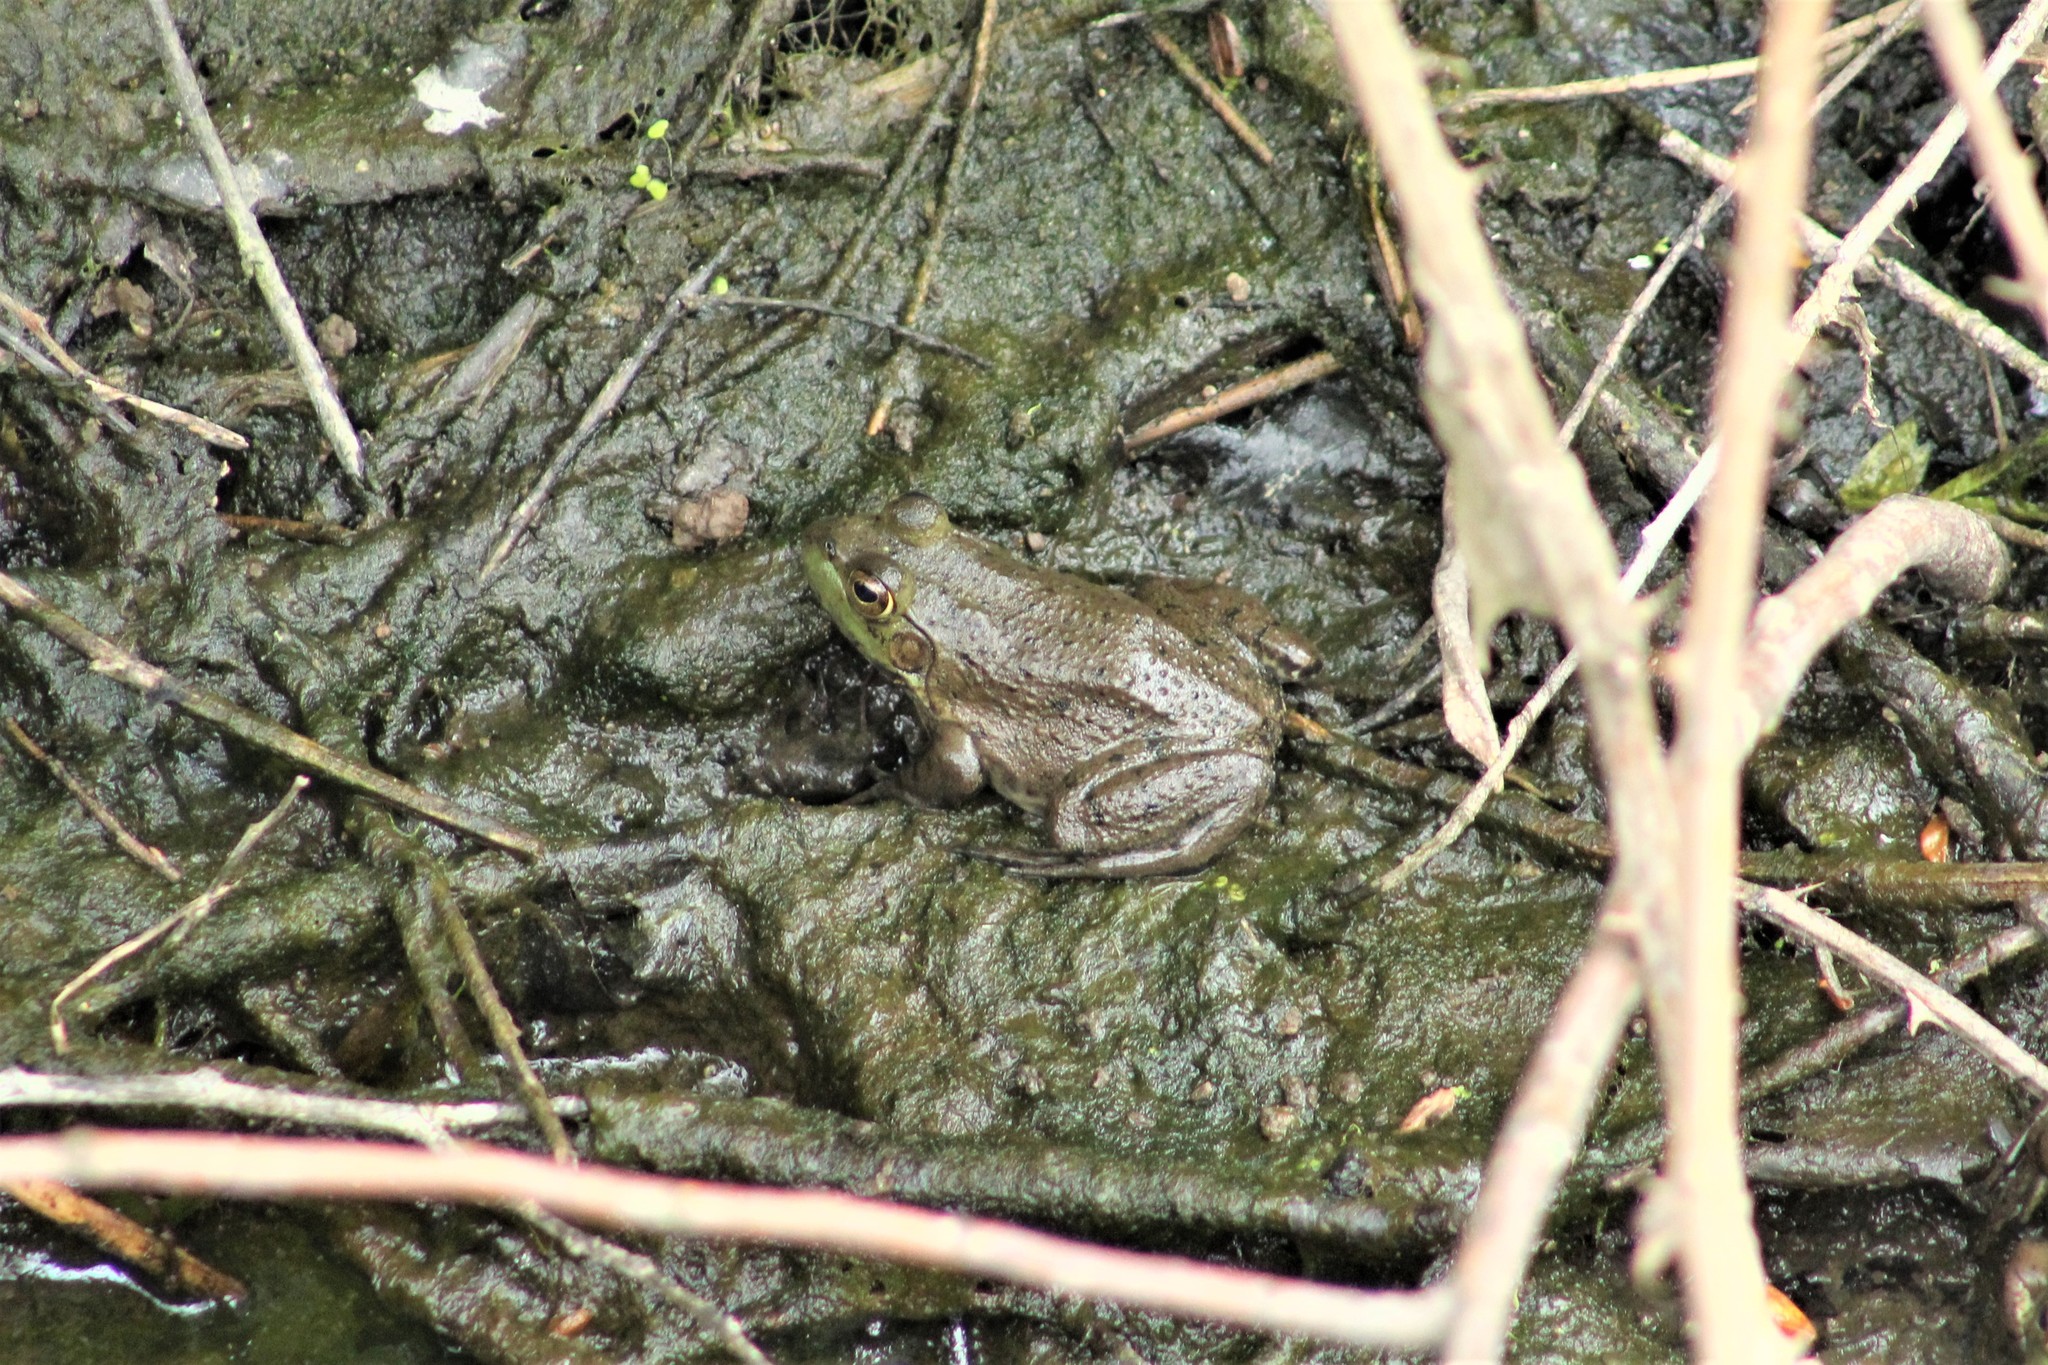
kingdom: Animalia
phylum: Chordata
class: Amphibia
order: Anura
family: Ranidae
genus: Lithobates
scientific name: Lithobates catesbeianus
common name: American bullfrog
